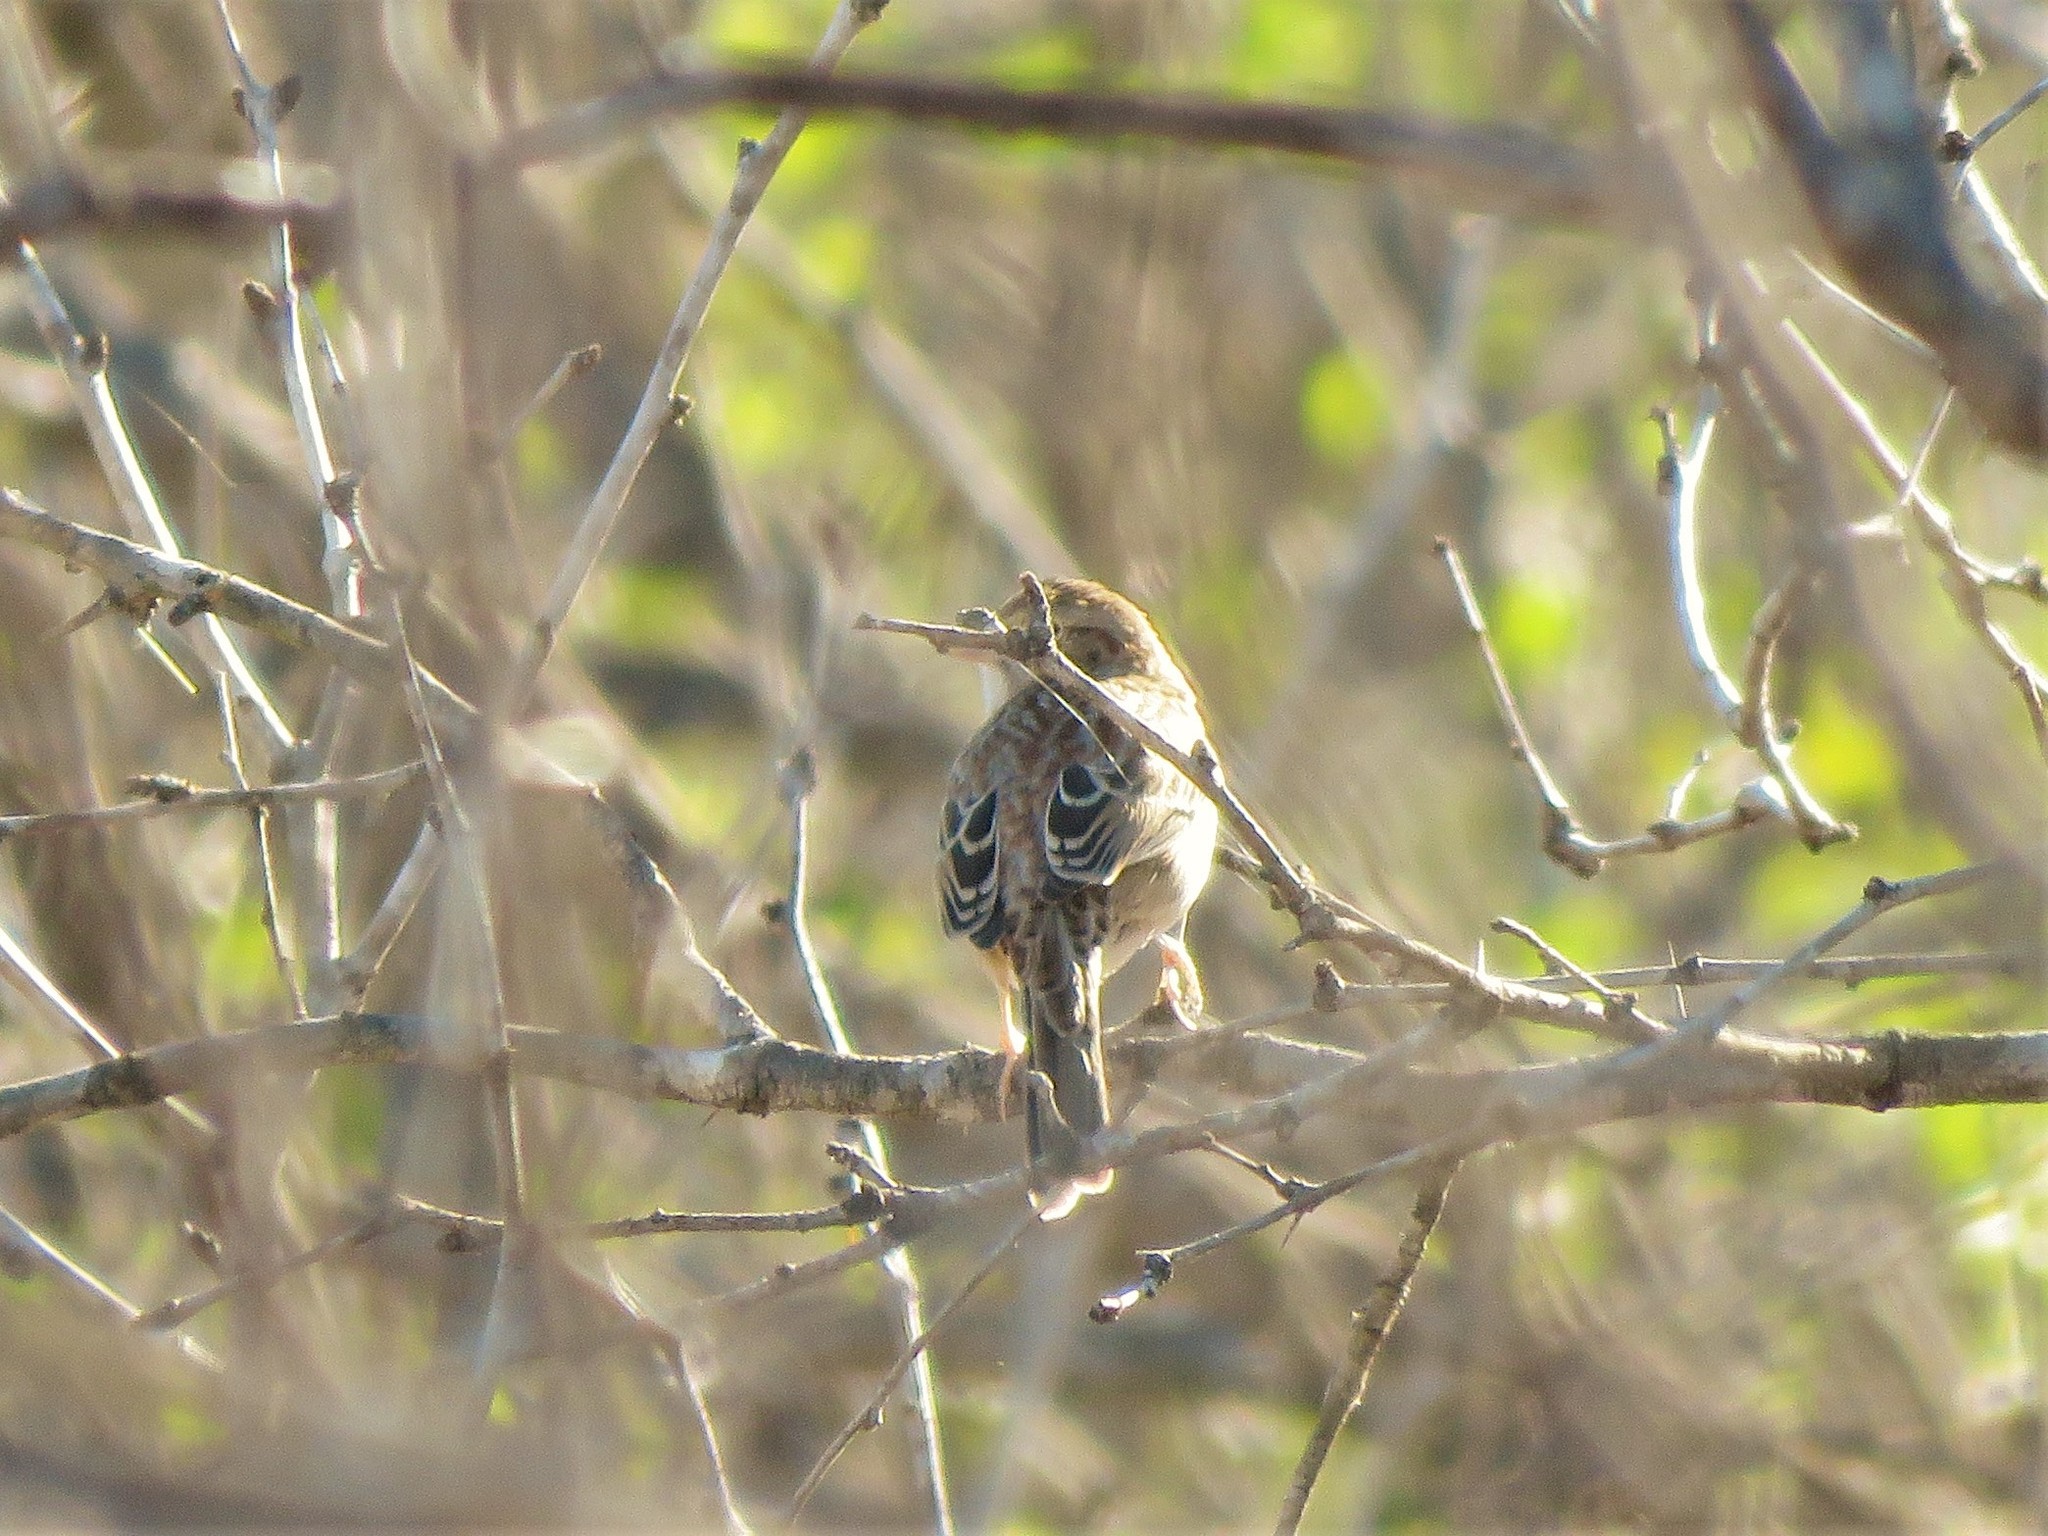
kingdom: Animalia
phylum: Chordata
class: Aves
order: Passeriformes
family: Passerellidae
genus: Peucaea
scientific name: Peucaea cassinii
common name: Cassin's sparrow
